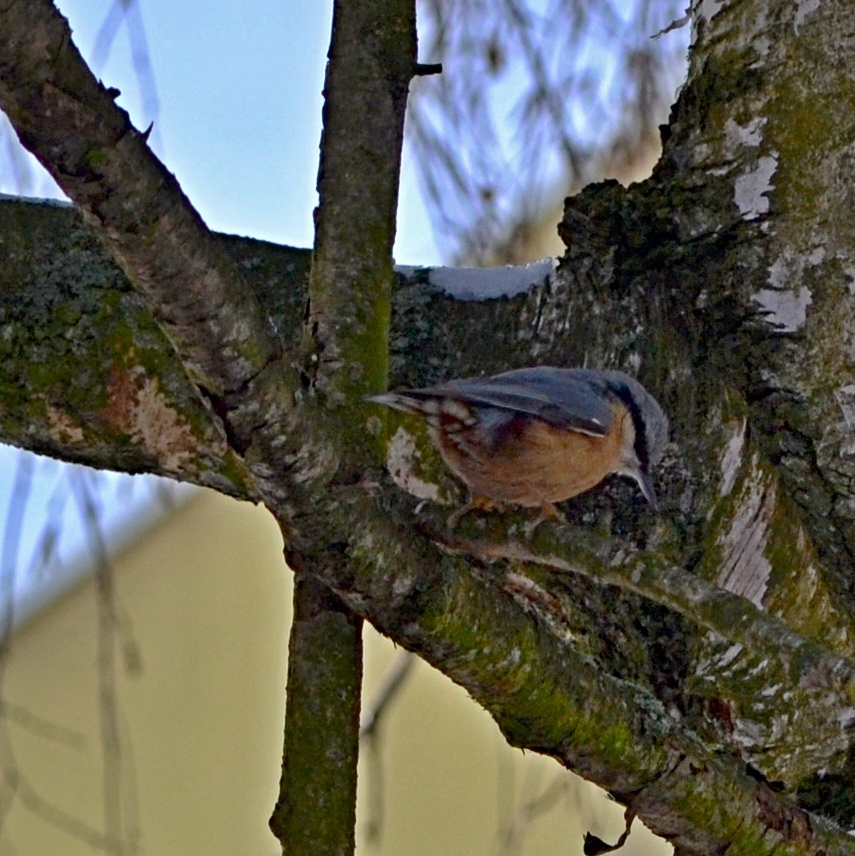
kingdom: Animalia
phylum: Chordata
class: Aves
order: Passeriformes
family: Sittidae
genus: Sitta
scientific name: Sitta europaea
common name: Eurasian nuthatch
